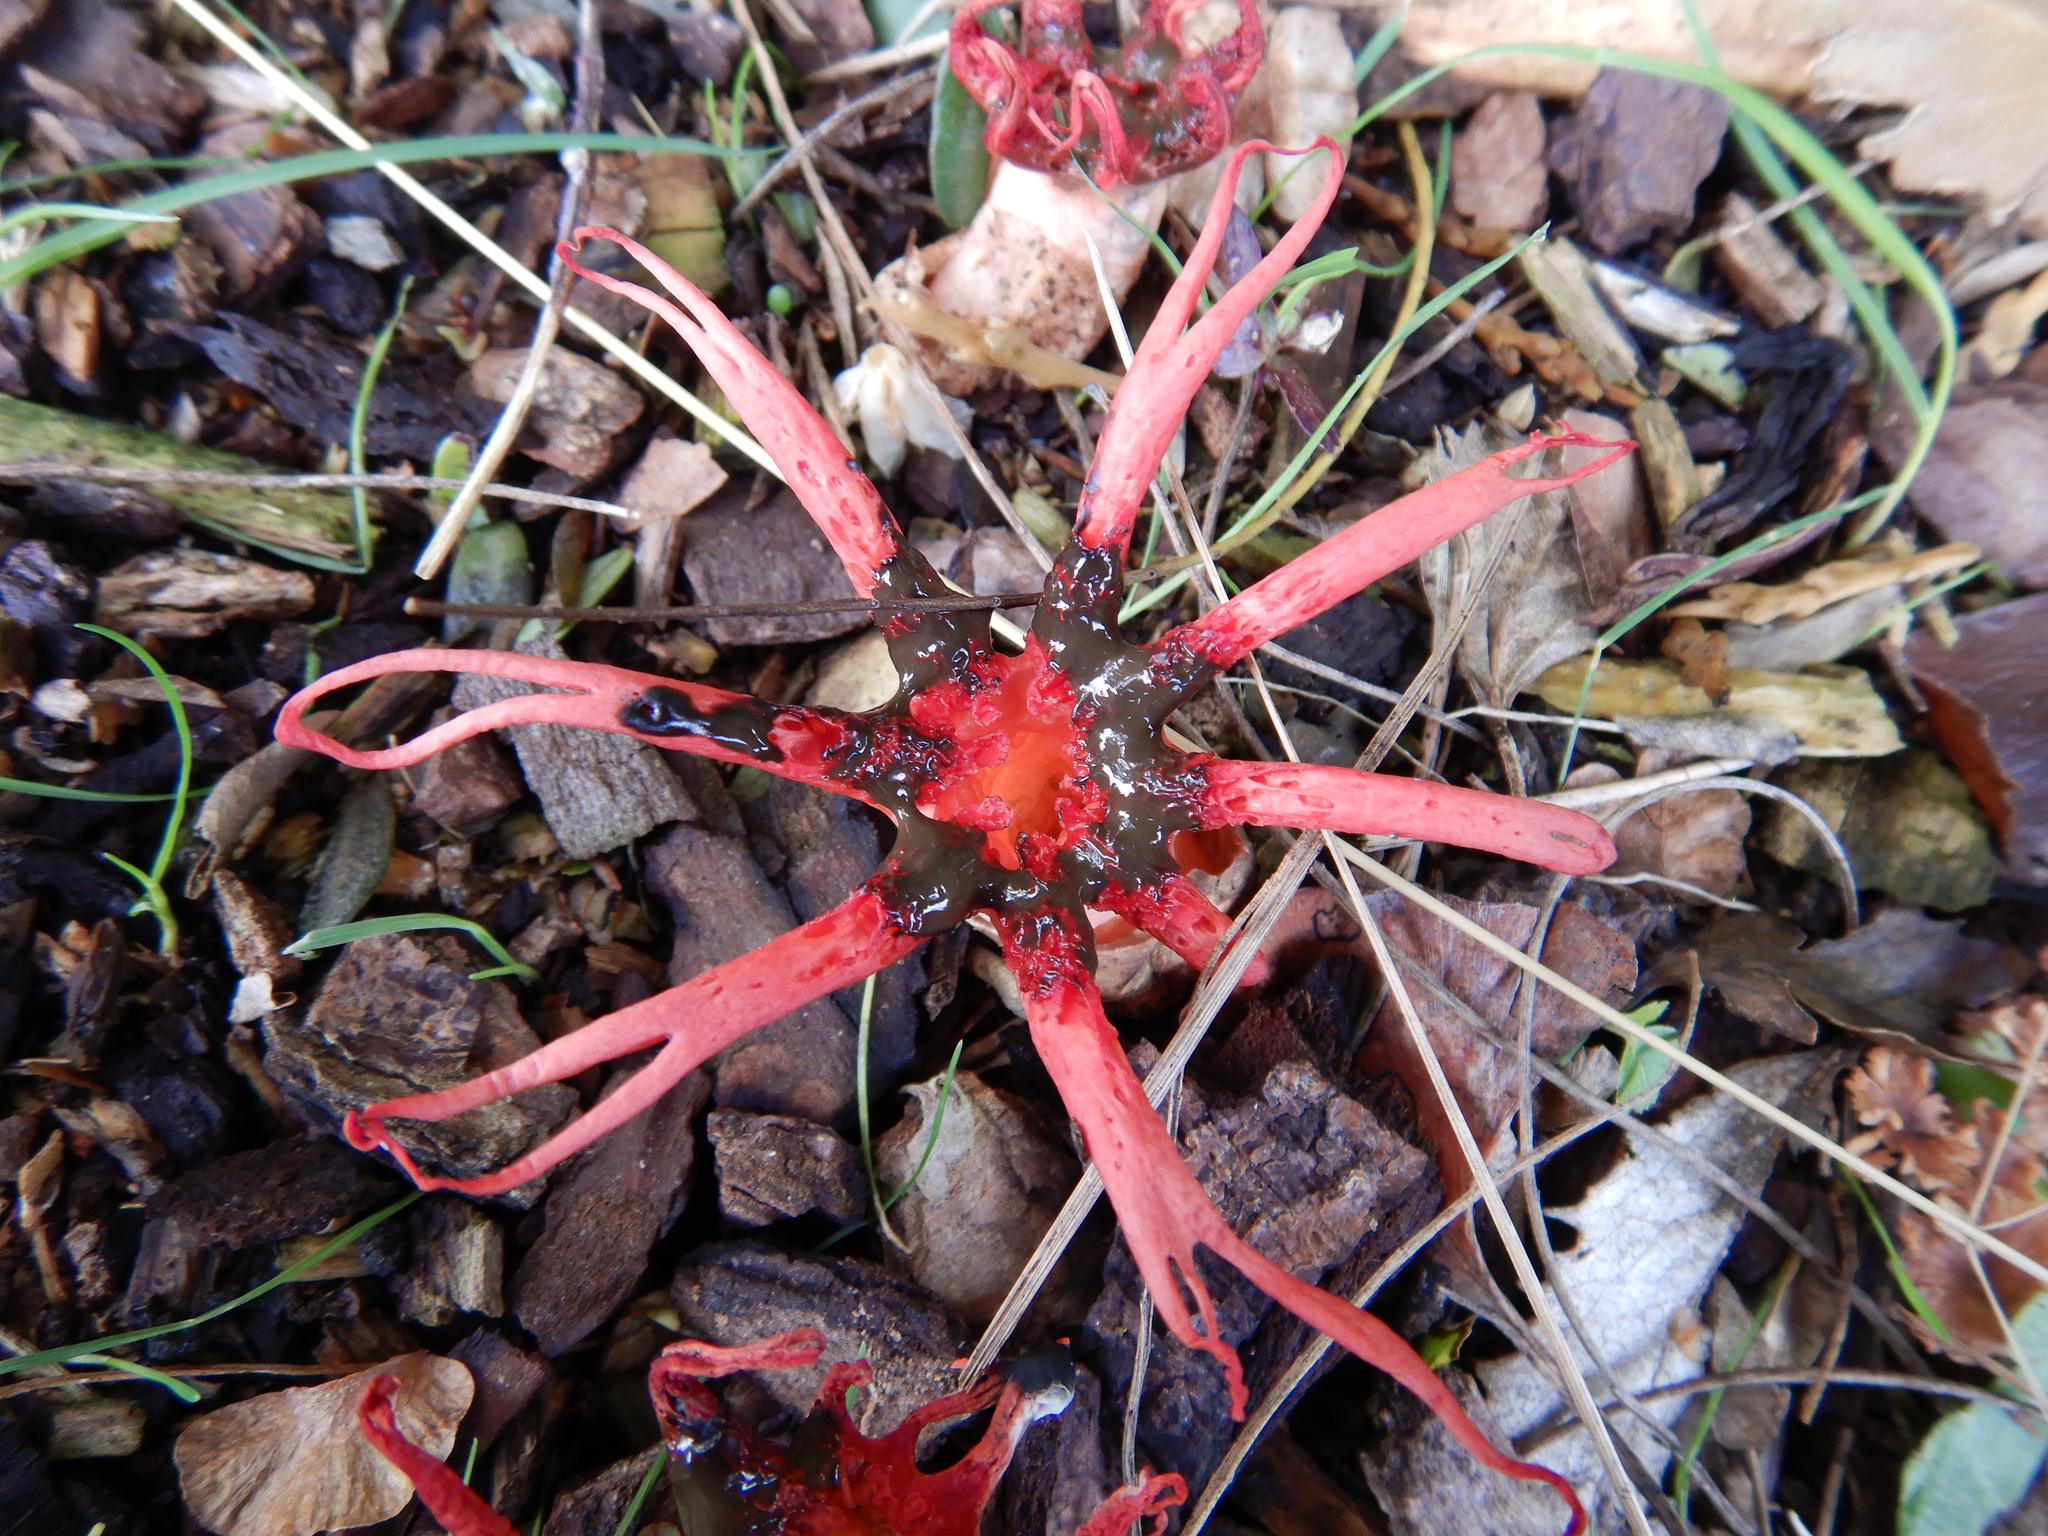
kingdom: Fungi
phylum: Basidiomycota
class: Agaricomycetes
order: Phallales
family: Phallaceae
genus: Aseroe
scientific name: Aseroe rubra
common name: Starfish fungus
